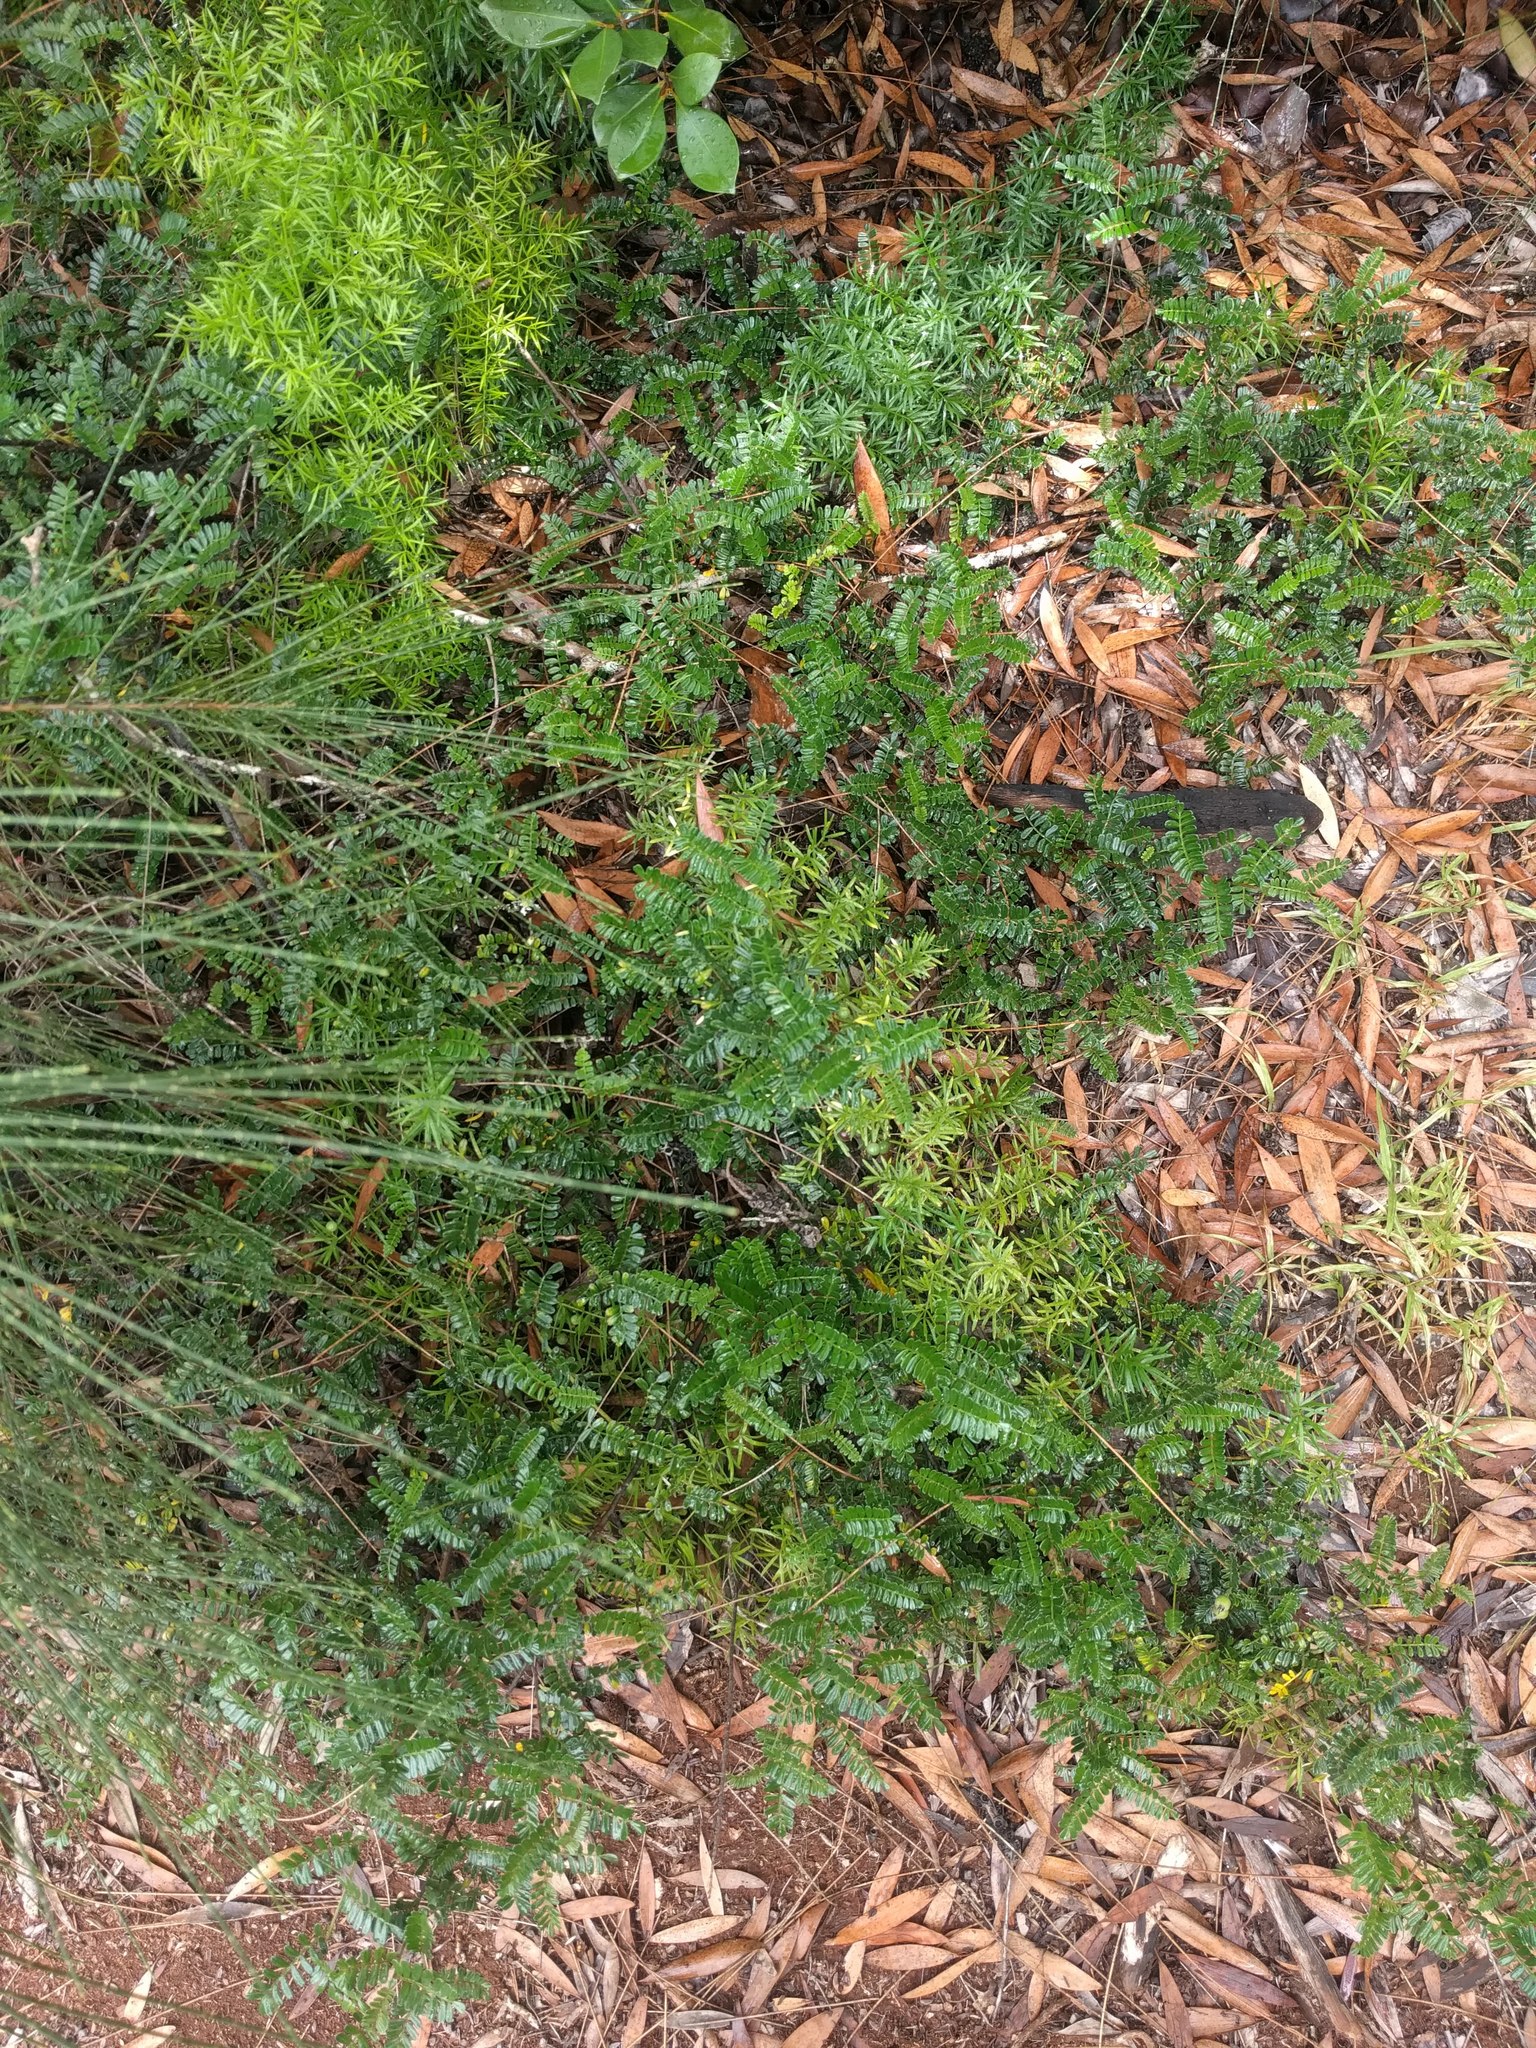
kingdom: Plantae
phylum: Tracheophyta
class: Magnoliopsida
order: Rosales
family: Rosaceae
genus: Osteomeles
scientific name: Osteomeles anthyllidifolia
